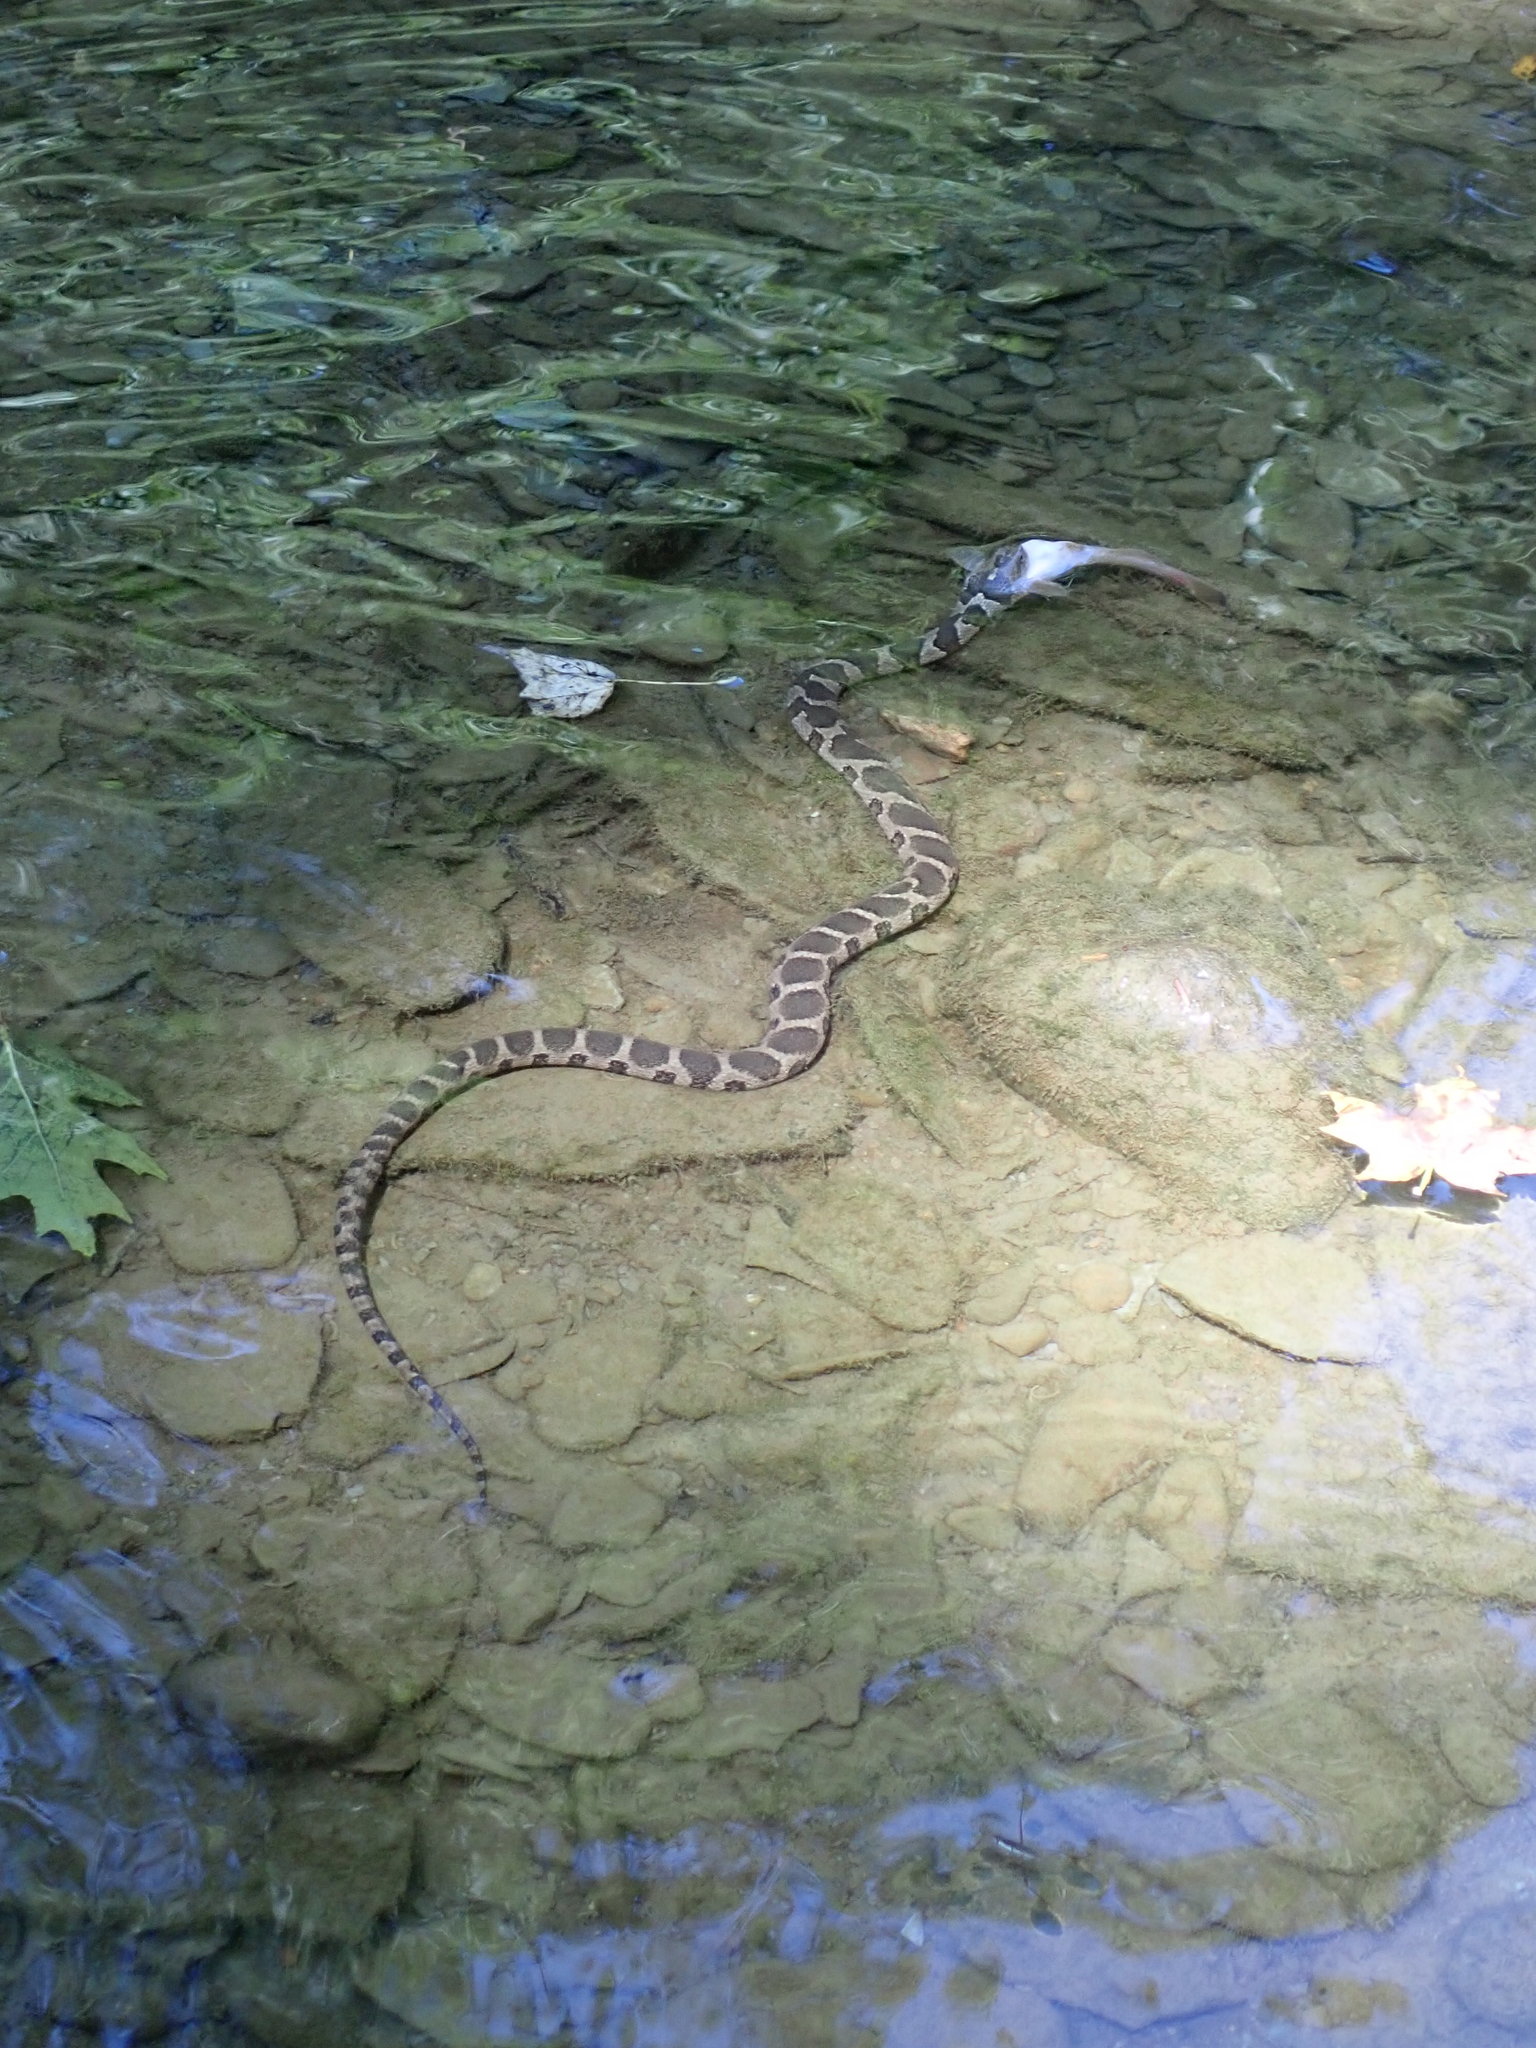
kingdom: Animalia
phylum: Chordata
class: Squamata
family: Colubridae
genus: Nerodia
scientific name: Nerodia sipedon
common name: Northern water snake
